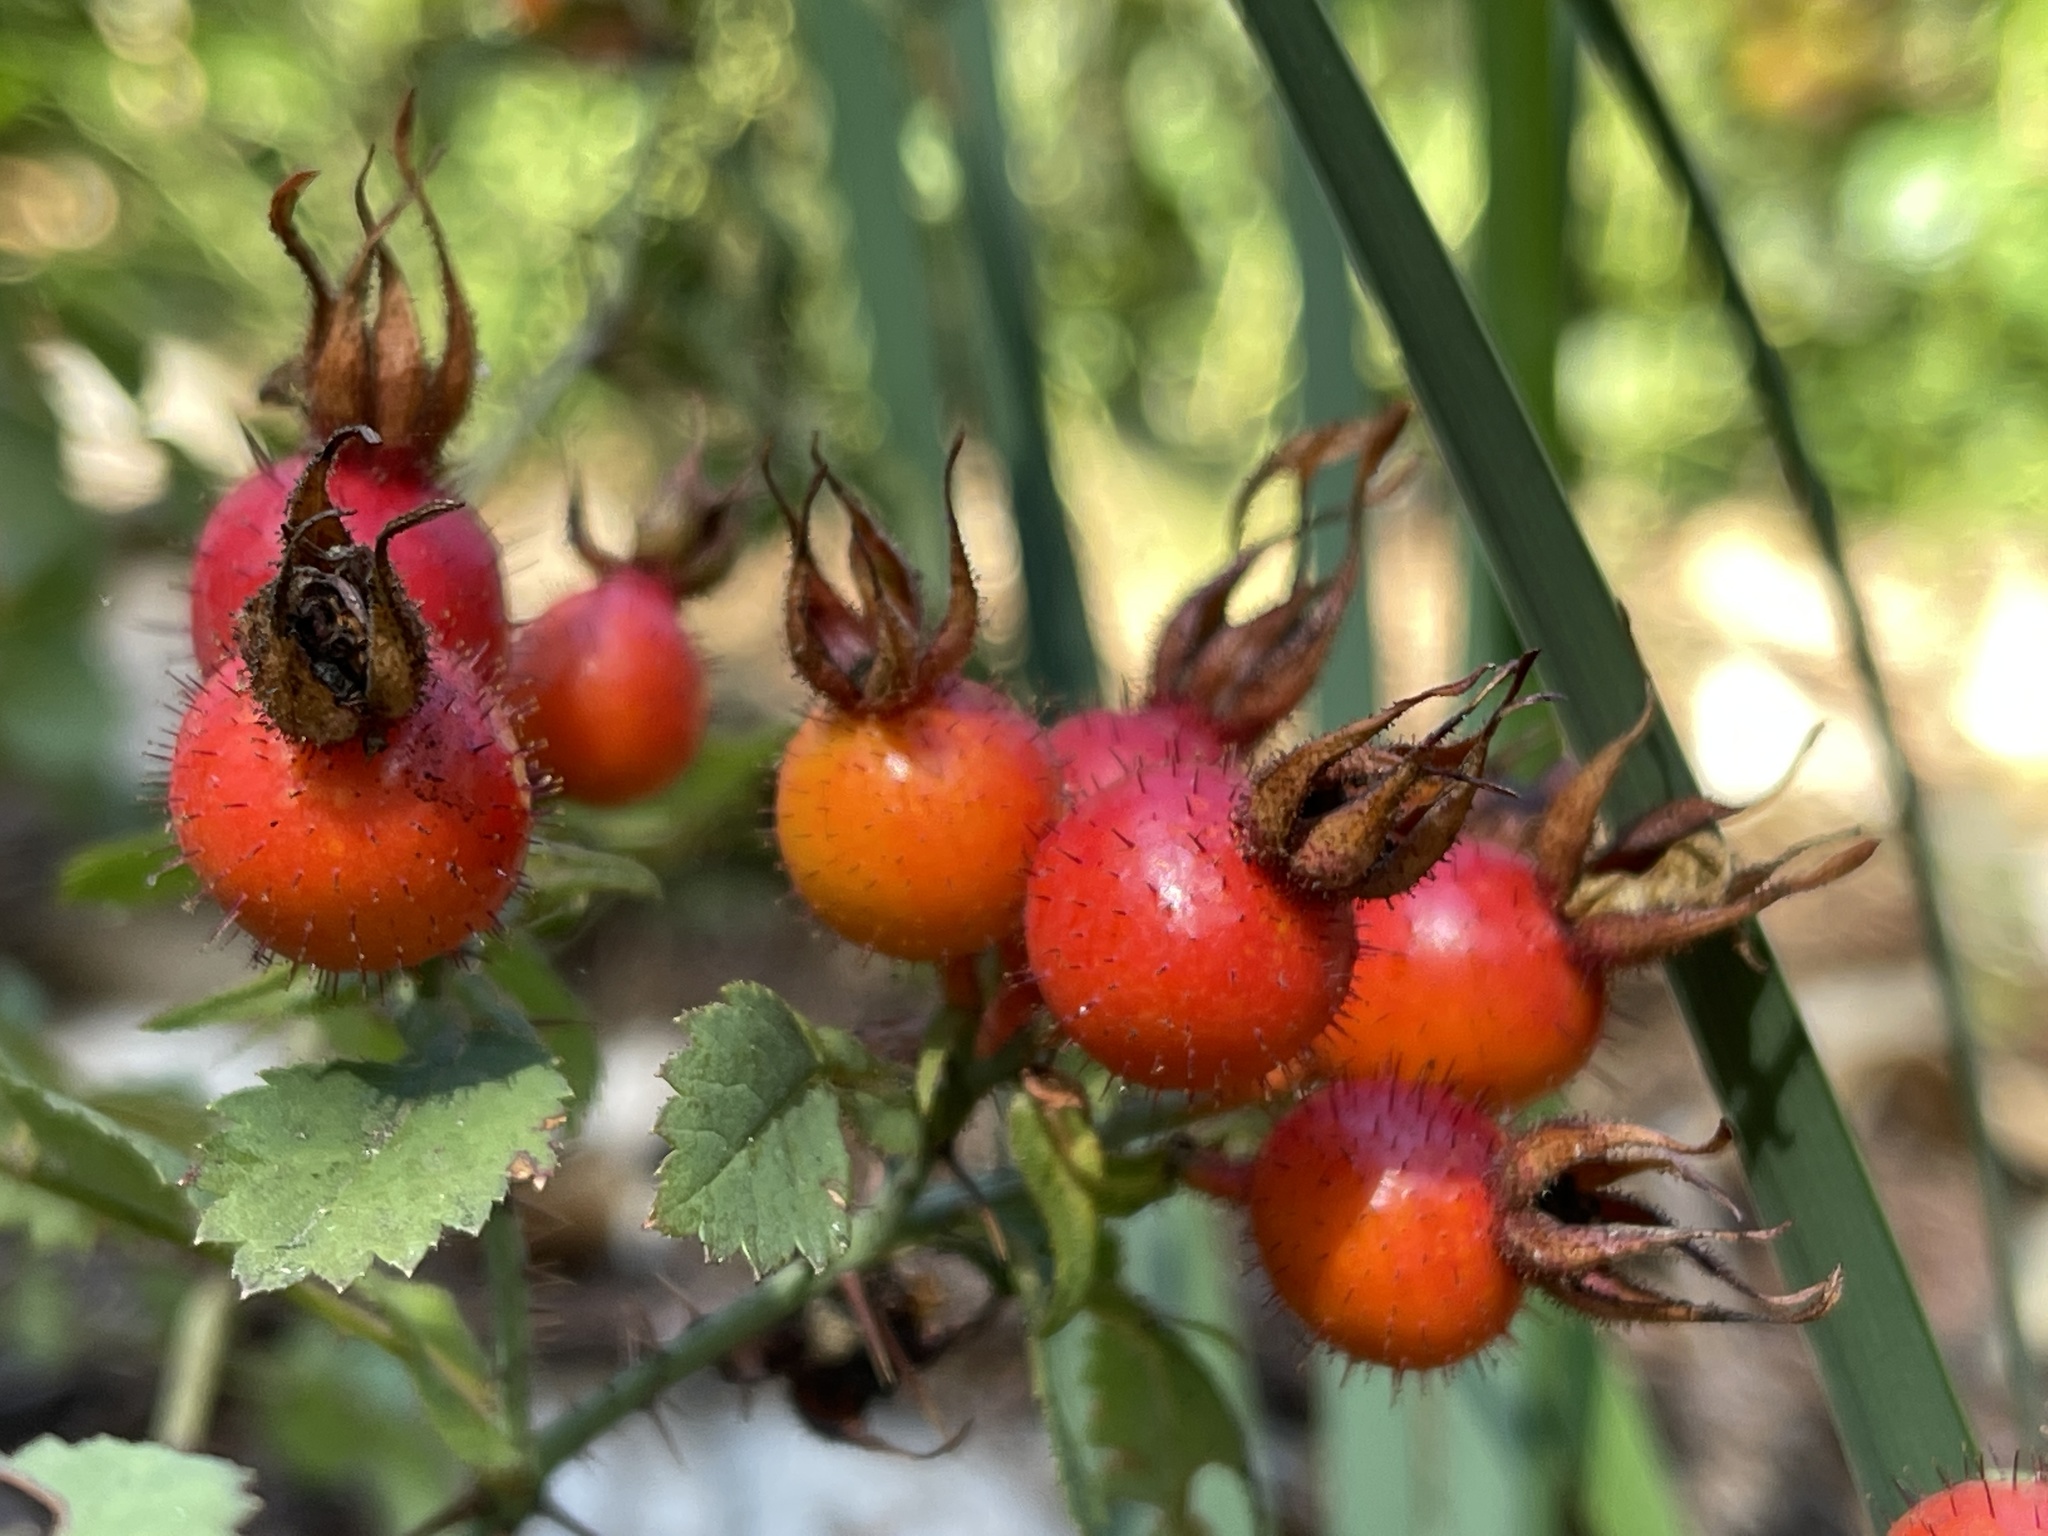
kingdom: Plantae
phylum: Tracheophyta
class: Magnoliopsida
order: Rosales
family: Rosaceae
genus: Rosa
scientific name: Rosa spithamea
